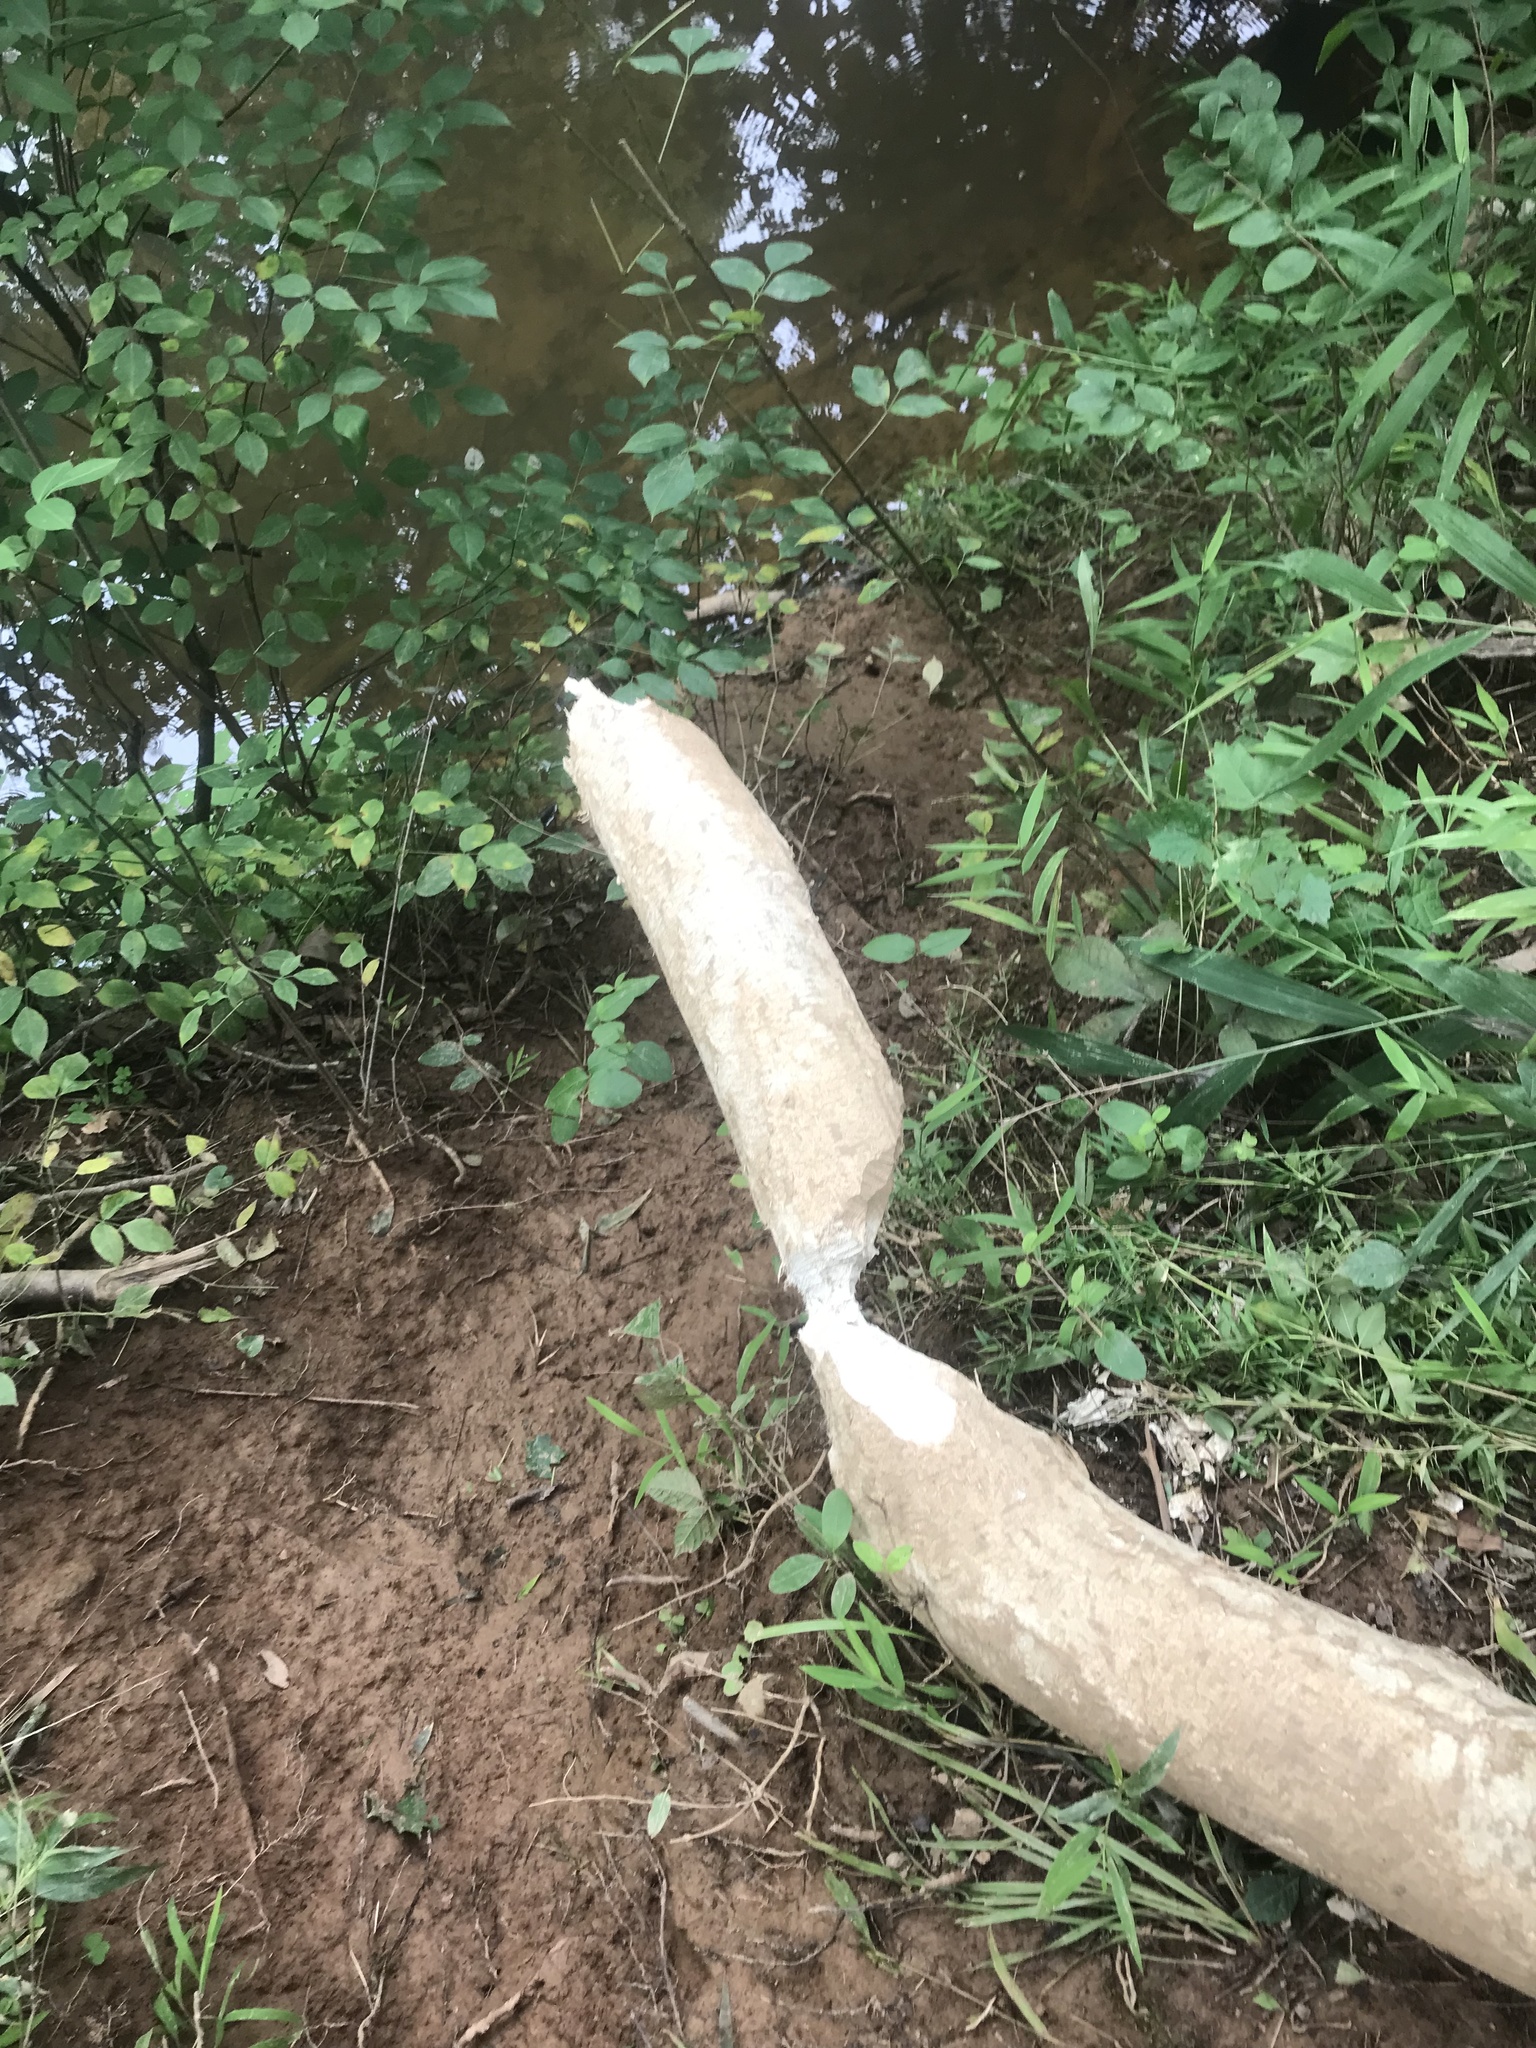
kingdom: Animalia
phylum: Chordata
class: Mammalia
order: Rodentia
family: Castoridae
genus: Castor
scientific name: Castor canadensis
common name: American beaver
